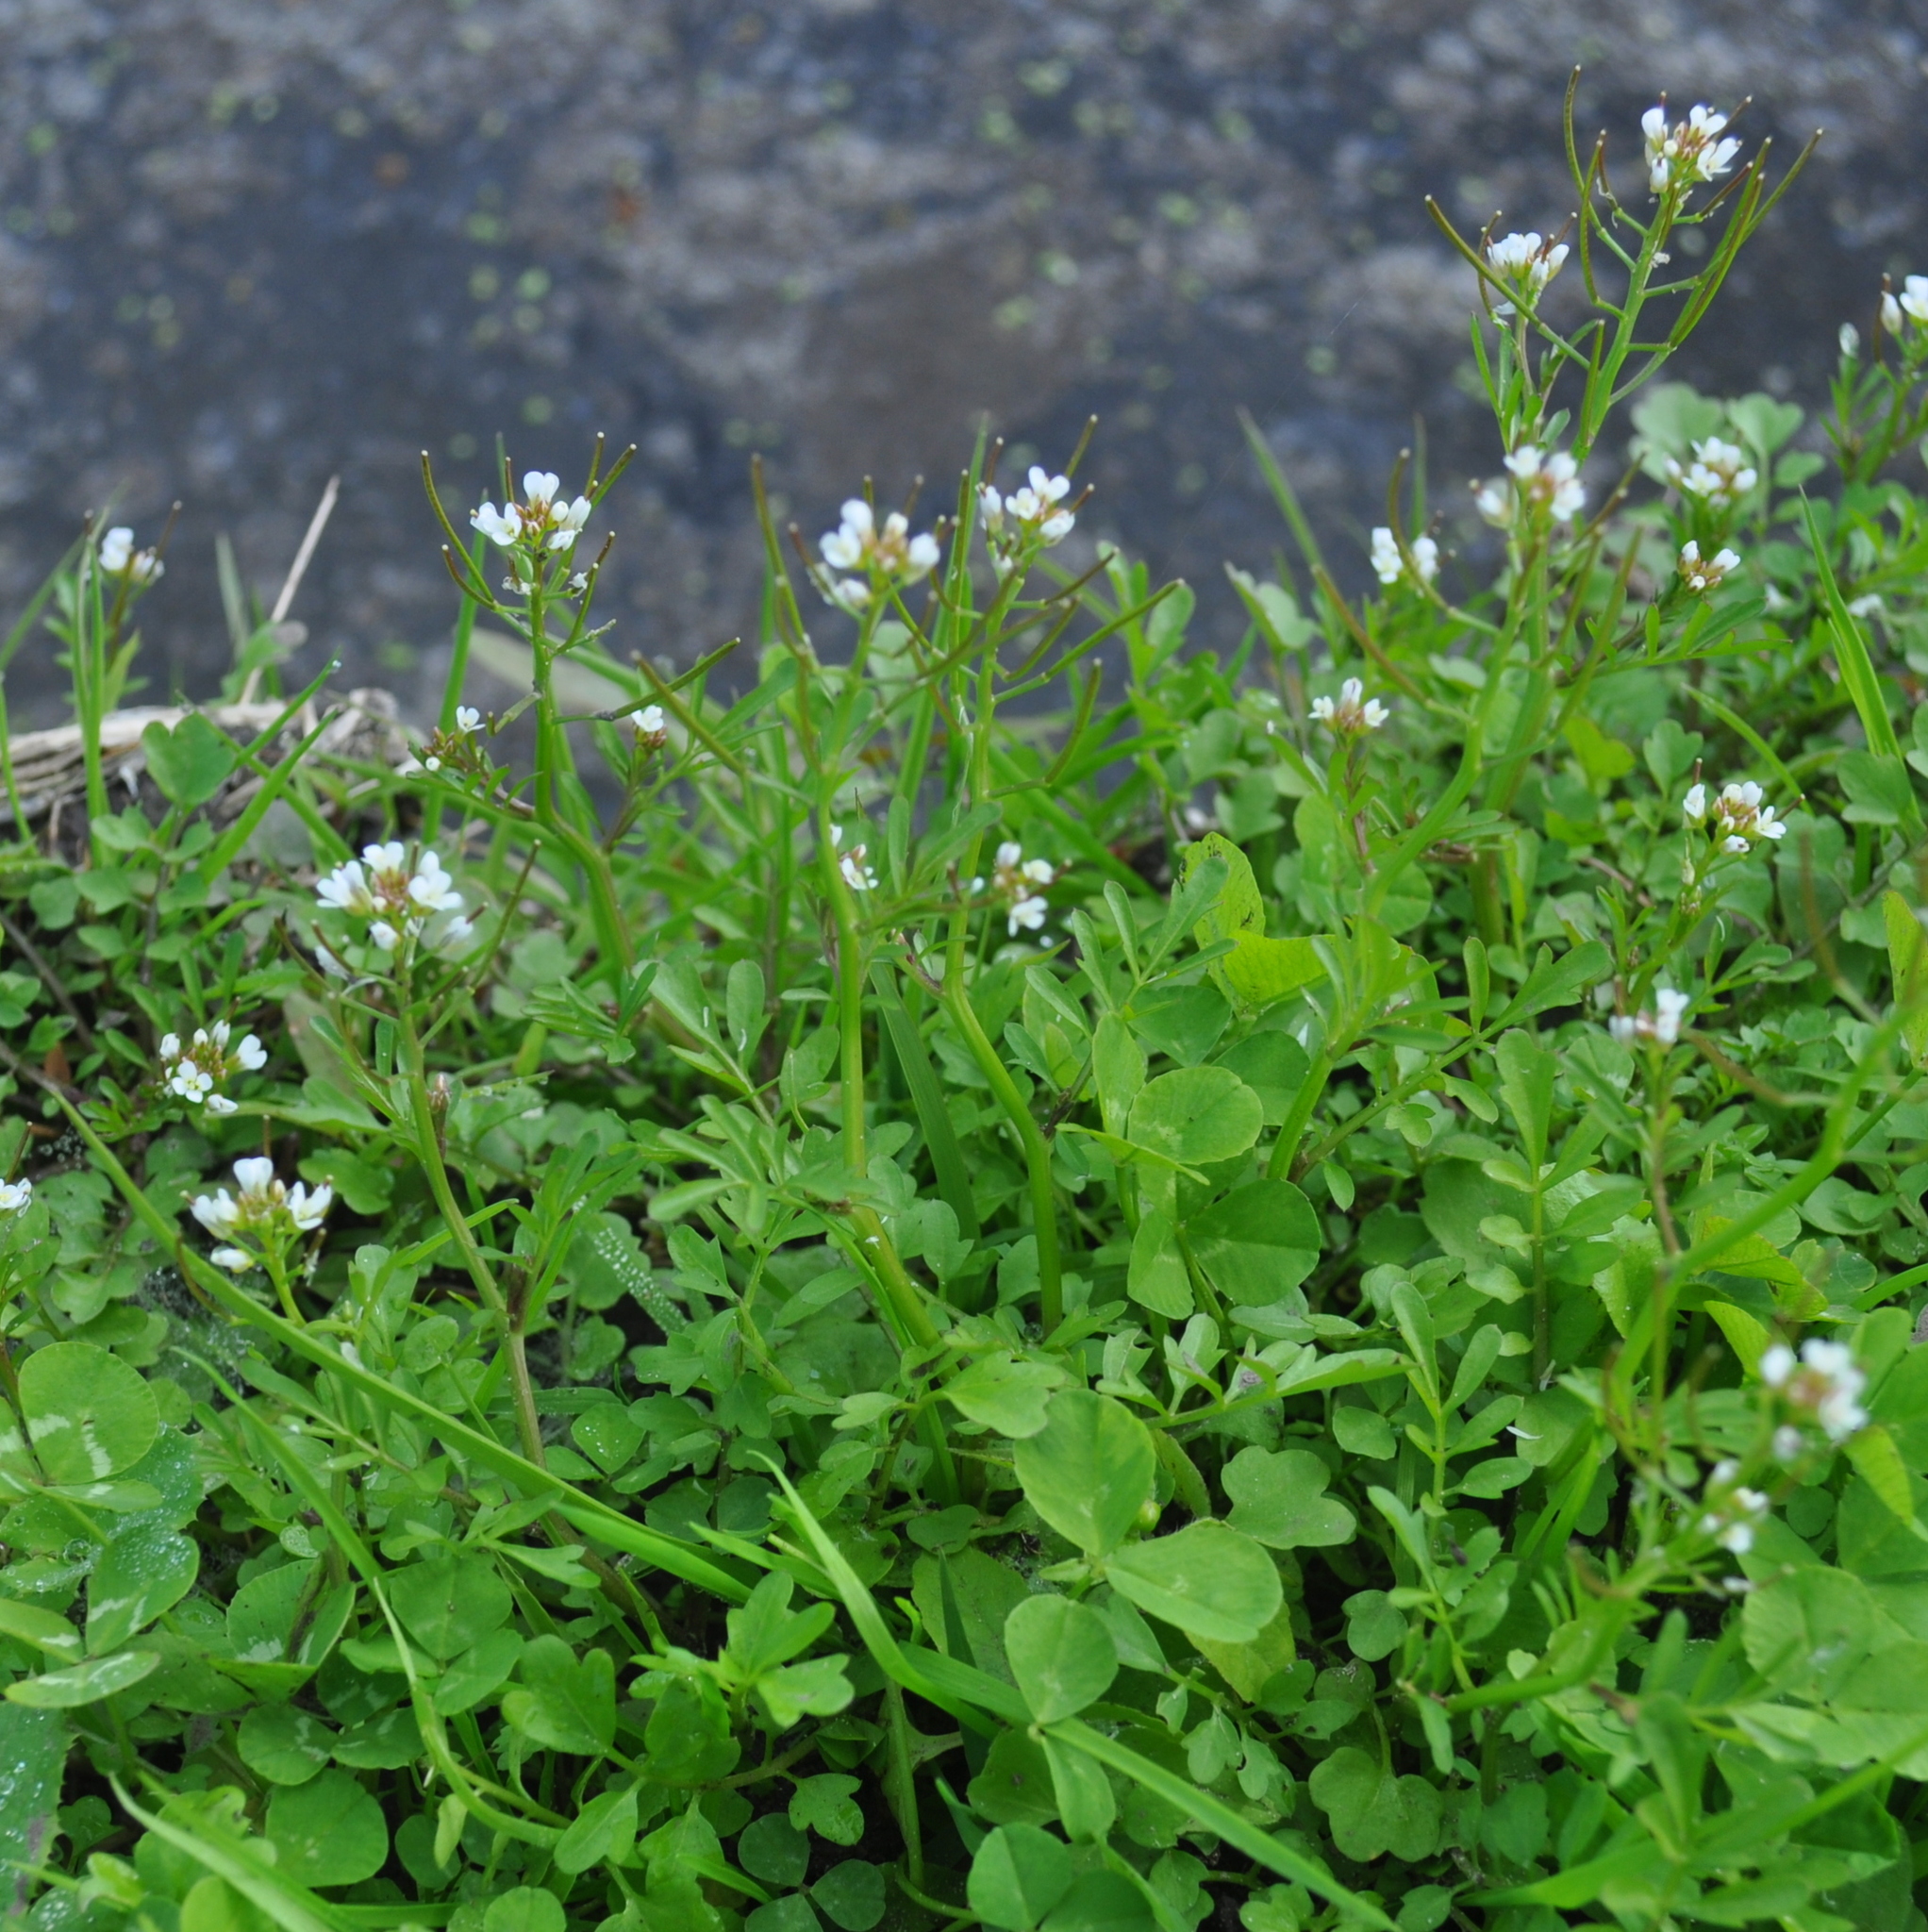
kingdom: Plantae
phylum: Tracheophyta
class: Magnoliopsida
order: Brassicales
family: Brassicaceae
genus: Cardamine
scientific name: Cardamine occulta
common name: Asian wavy bittercress
